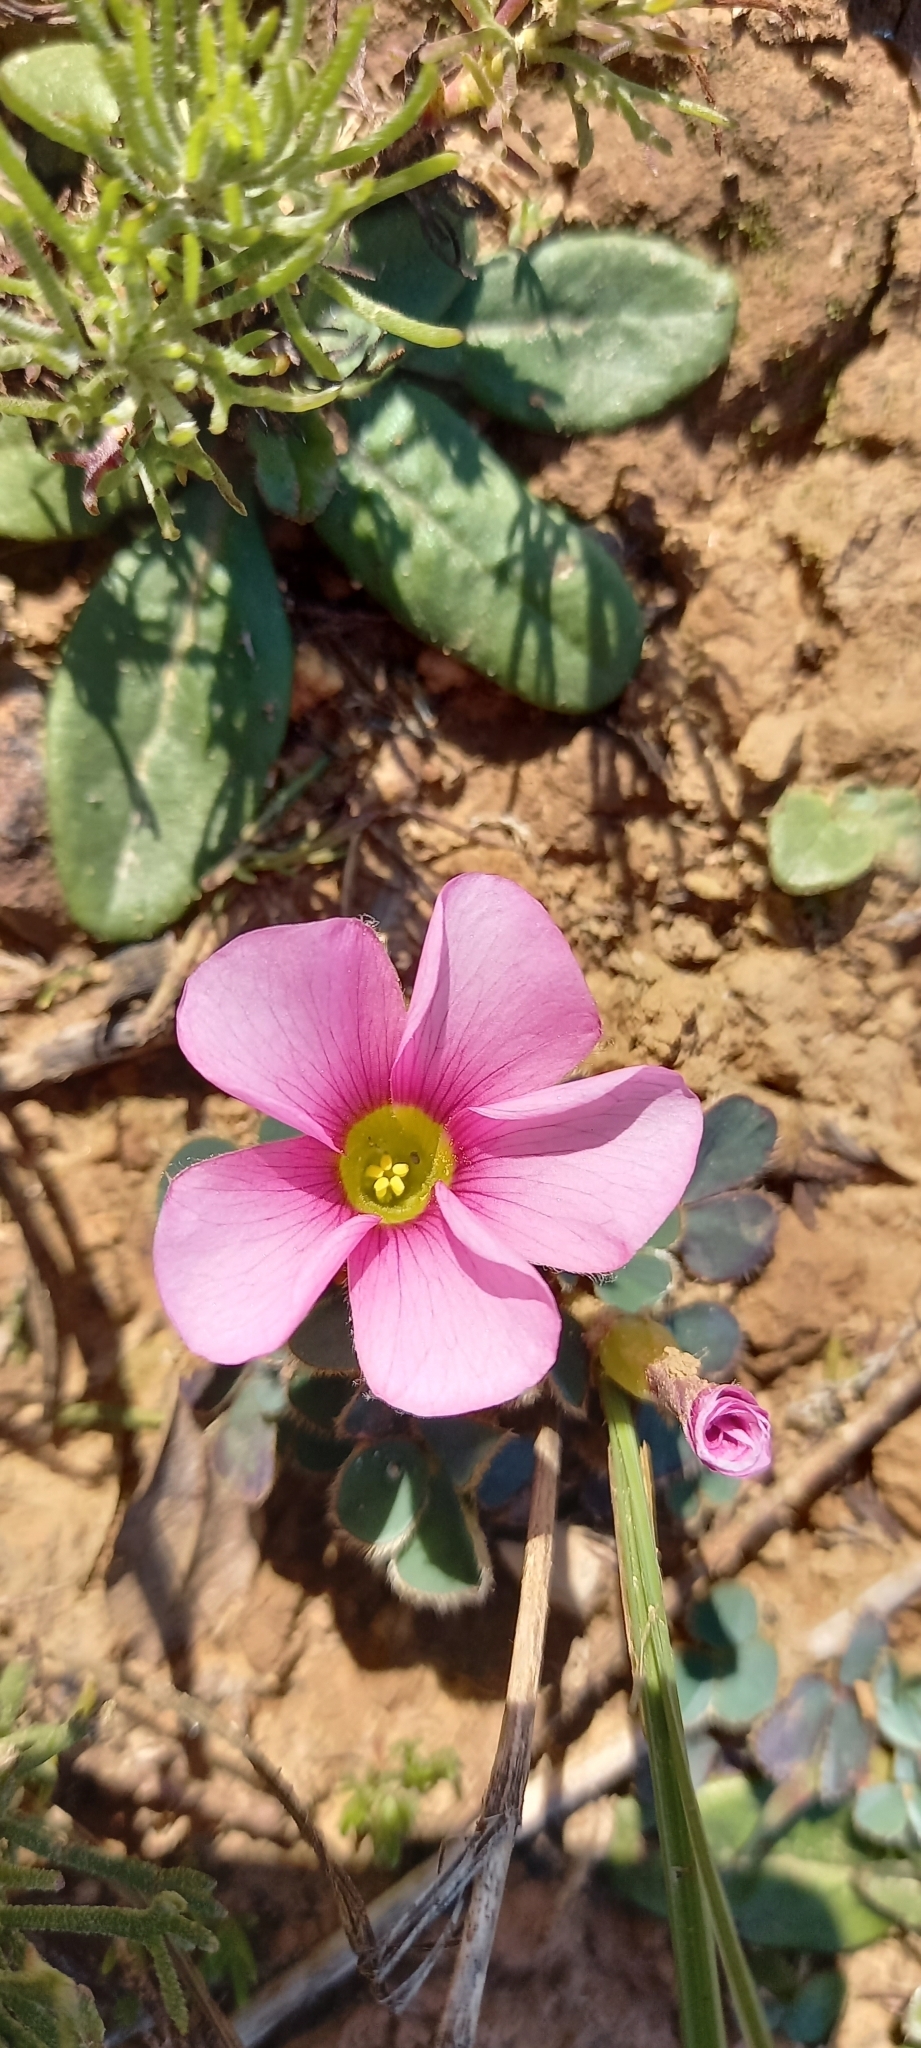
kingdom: Plantae
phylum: Tracheophyta
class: Magnoliopsida
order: Oxalidales
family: Oxalidaceae
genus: Oxalis
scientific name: Oxalis purpurea
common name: Purple woodsorrel
